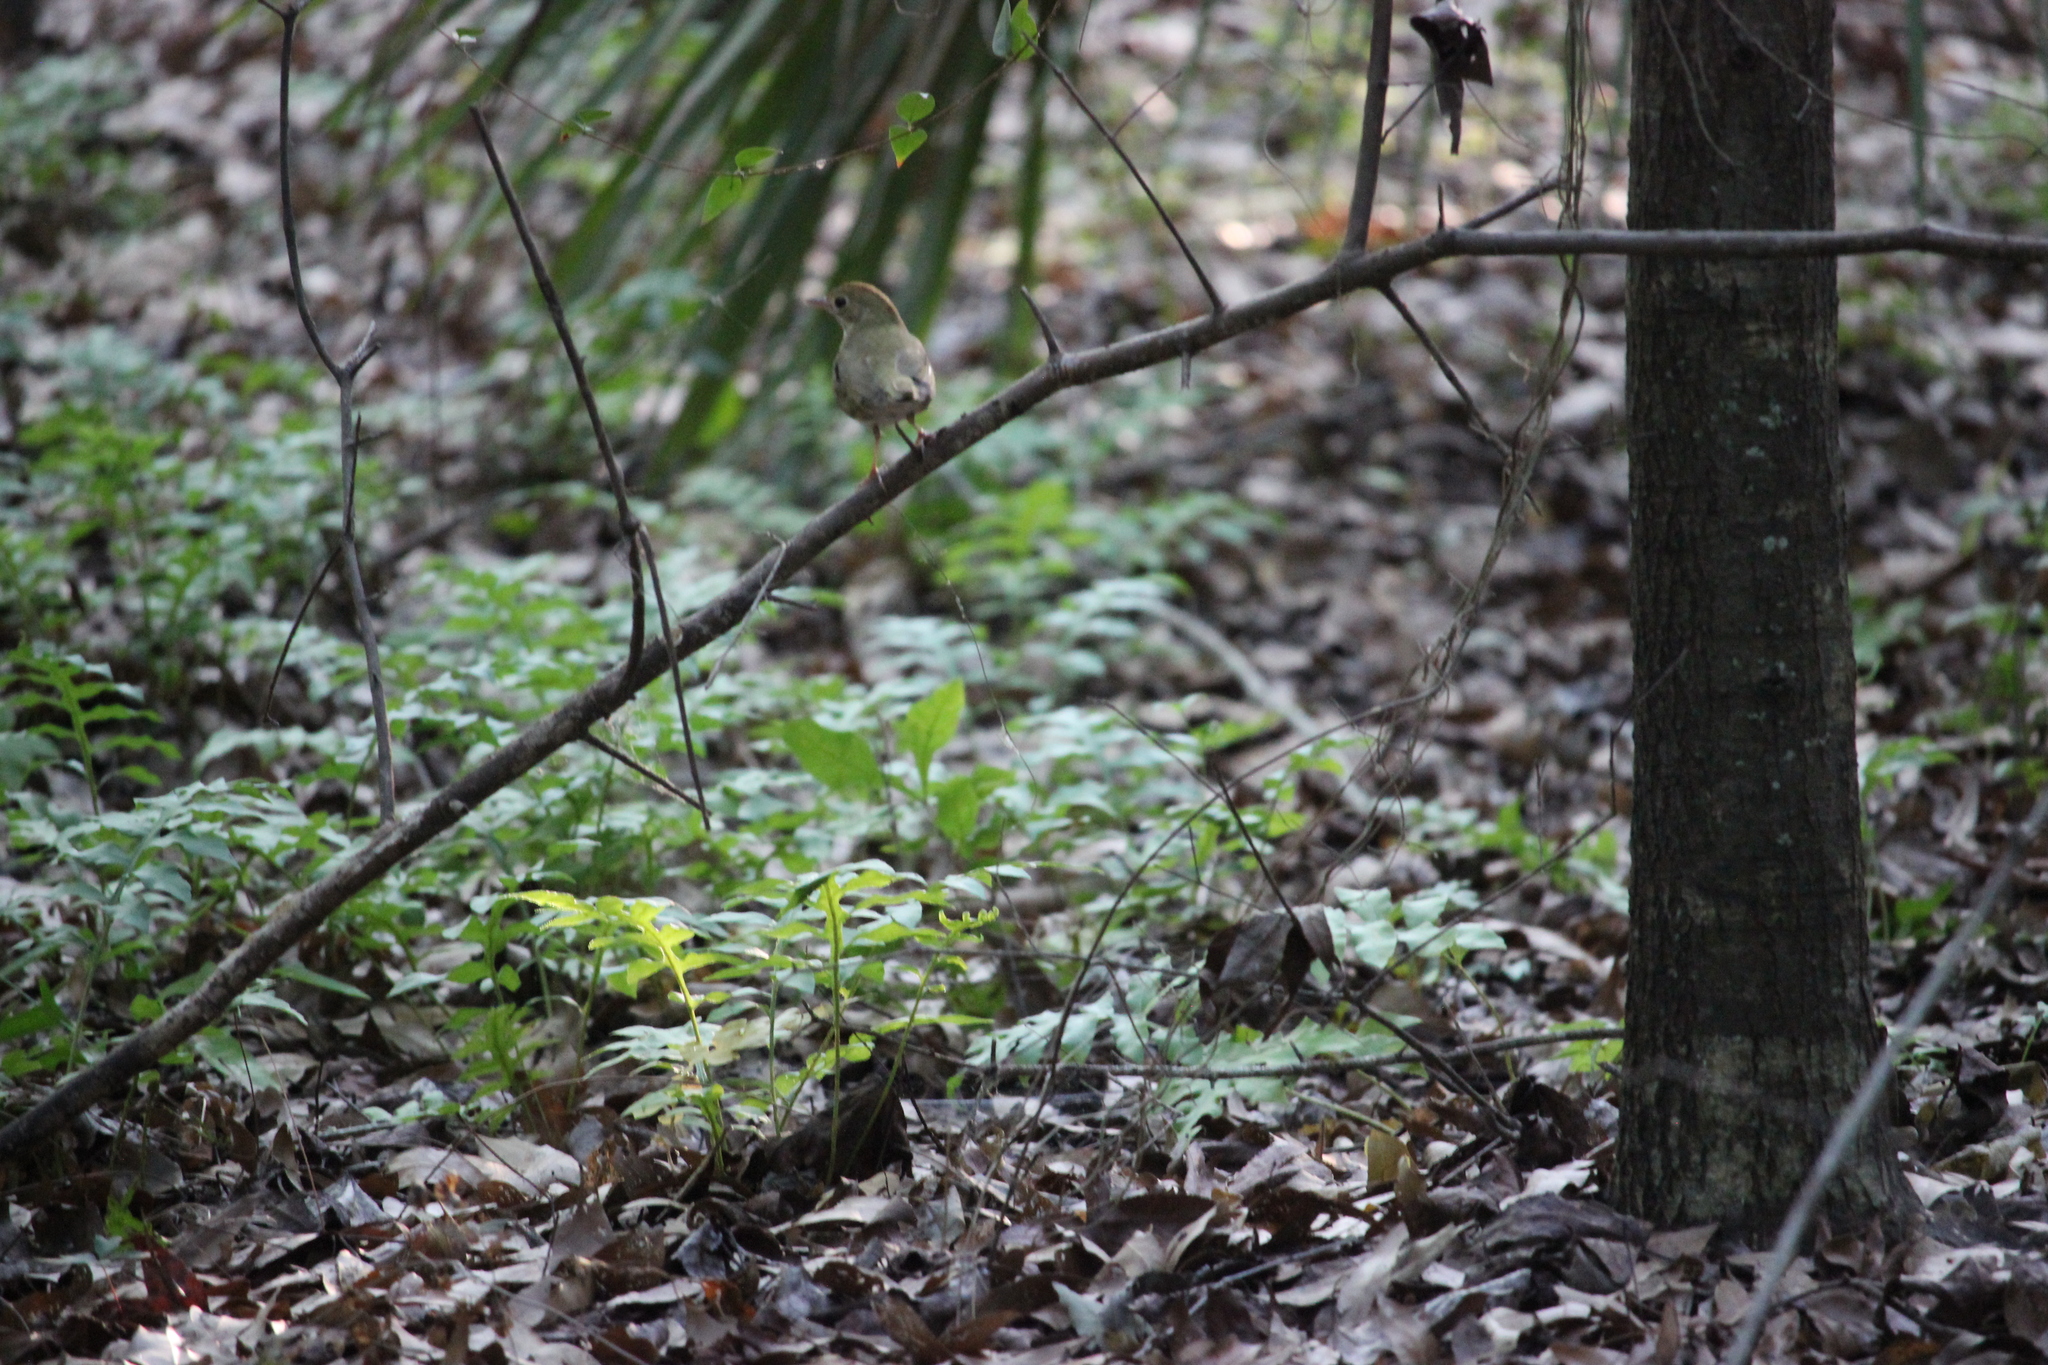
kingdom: Animalia
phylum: Chordata
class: Aves
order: Passeriformes
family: Parulidae
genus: Seiurus
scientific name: Seiurus aurocapilla
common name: Ovenbird
